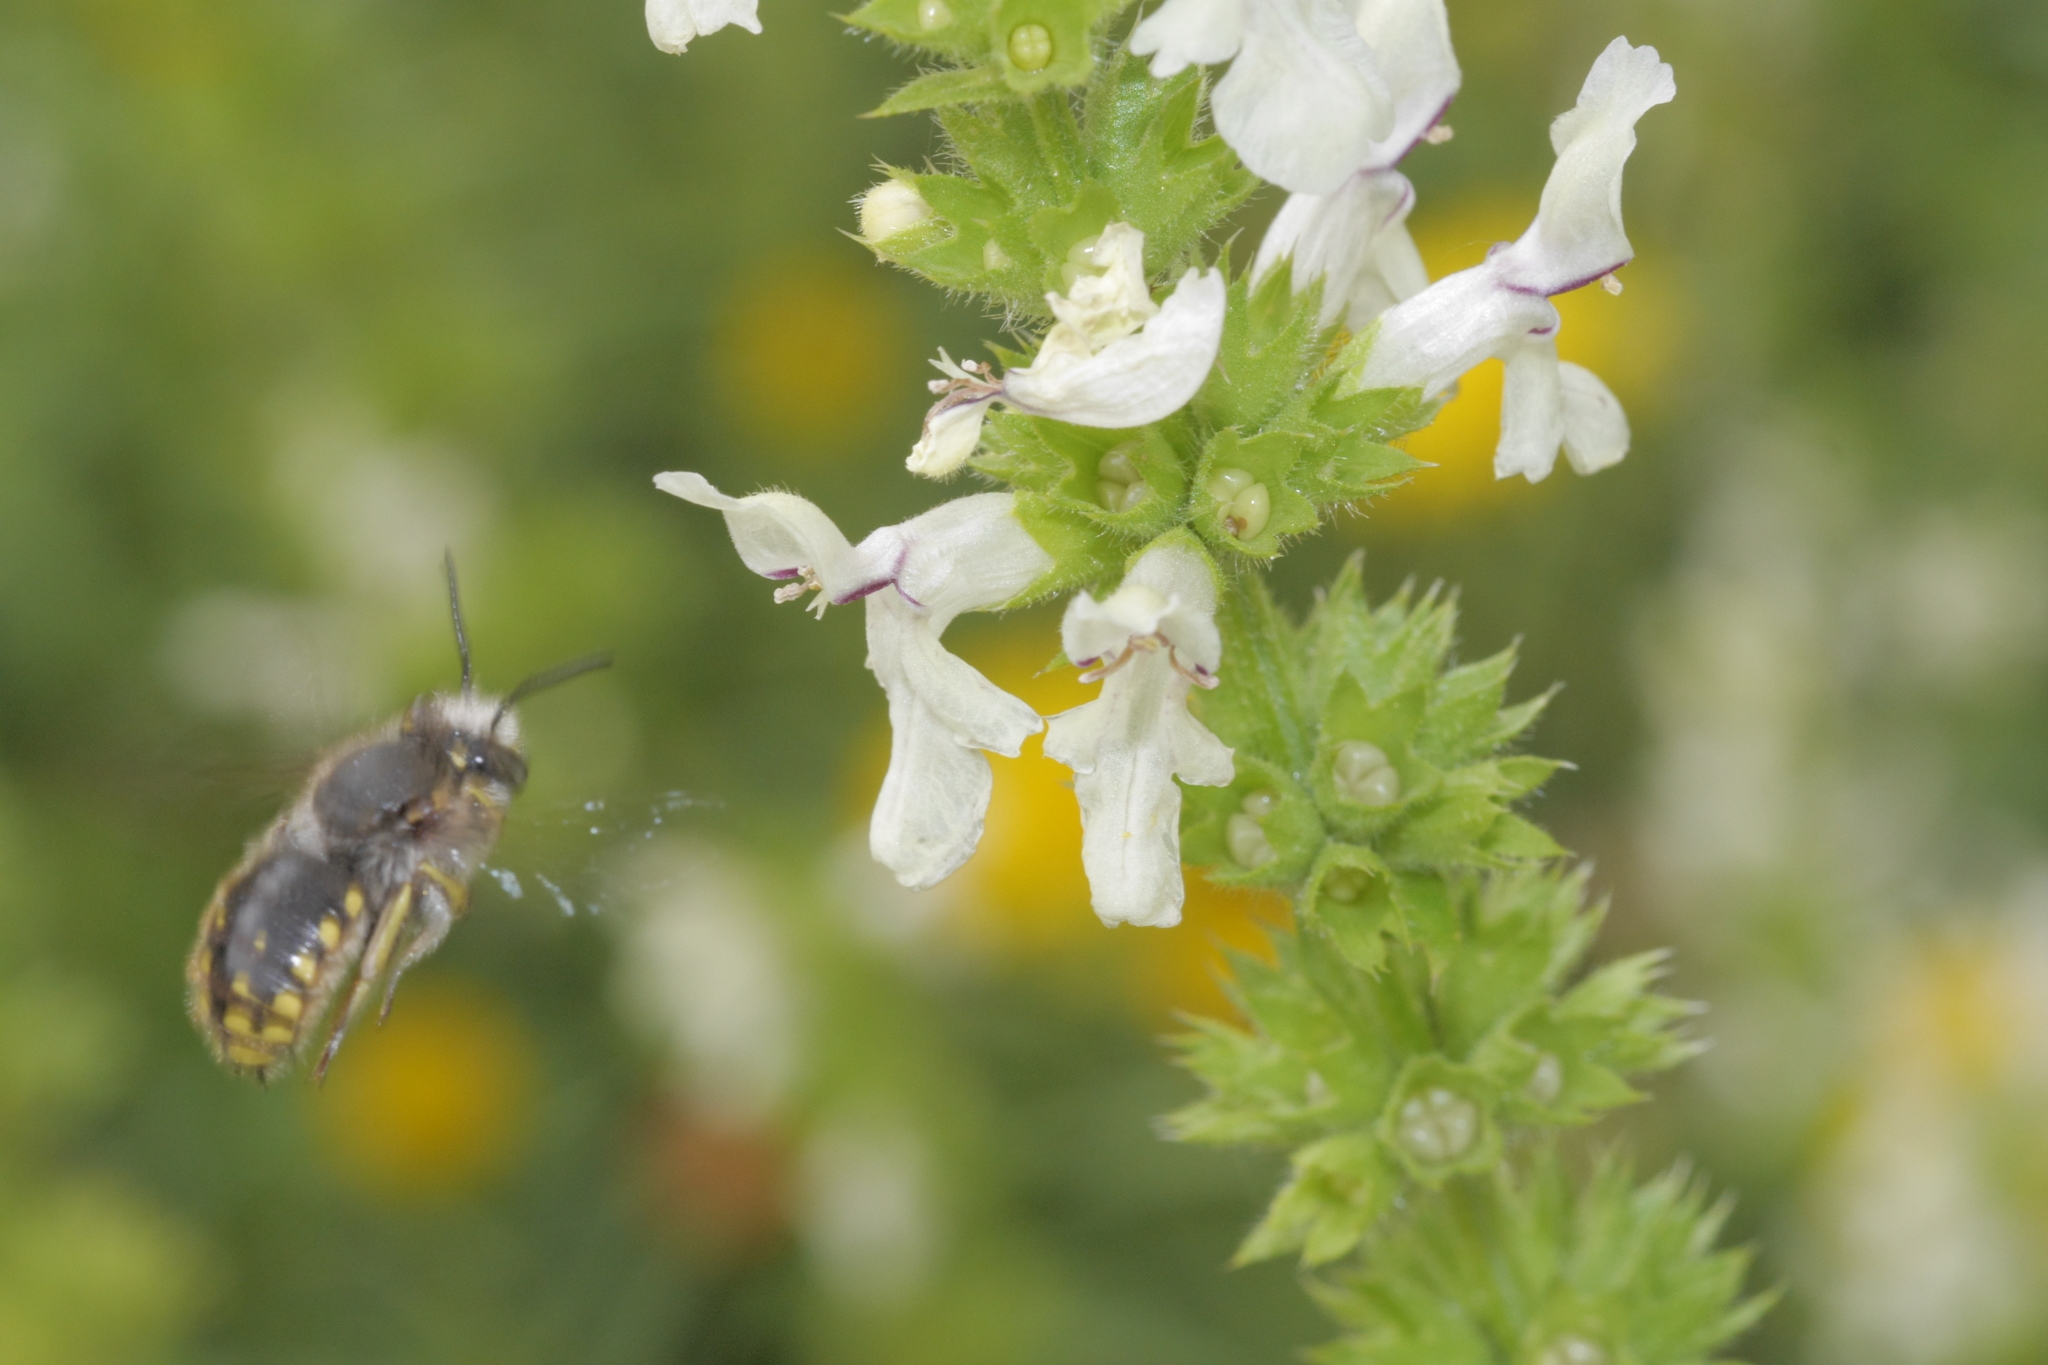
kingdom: Animalia
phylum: Arthropoda
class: Insecta
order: Hymenoptera
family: Megachilidae
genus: Anthidium
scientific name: Anthidium manicatum
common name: Wool carder bee
